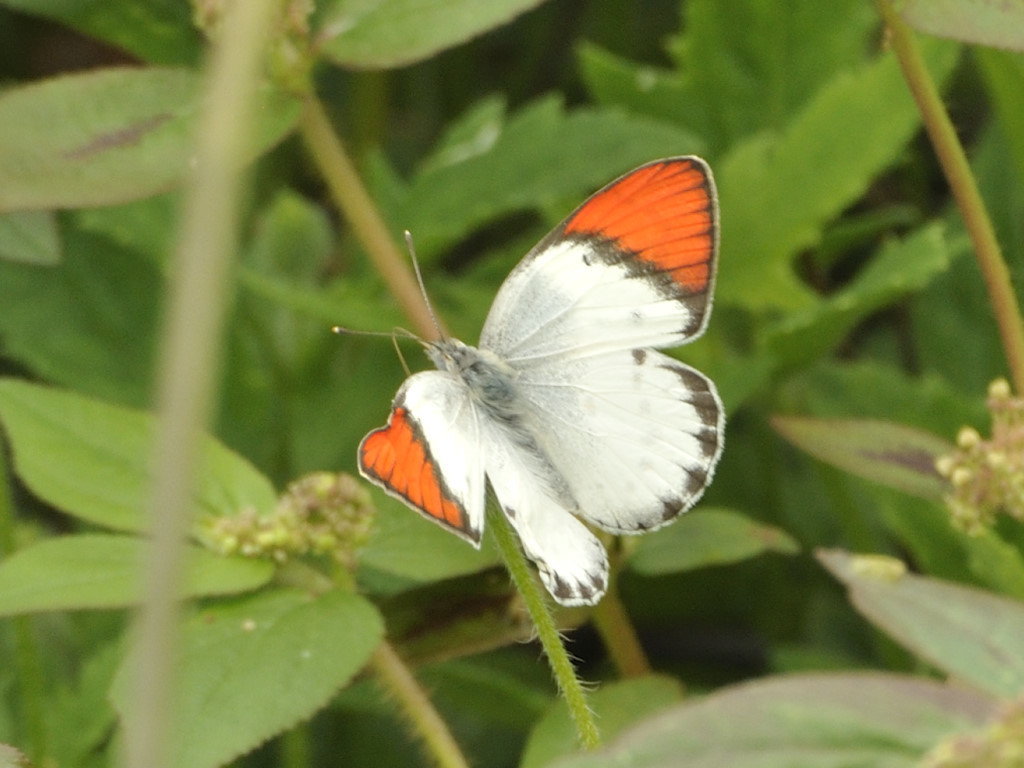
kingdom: Animalia
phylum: Arthropoda
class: Insecta
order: Lepidoptera
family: Pieridae
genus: Colotis
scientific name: Colotis annae
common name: Scarlet tip
